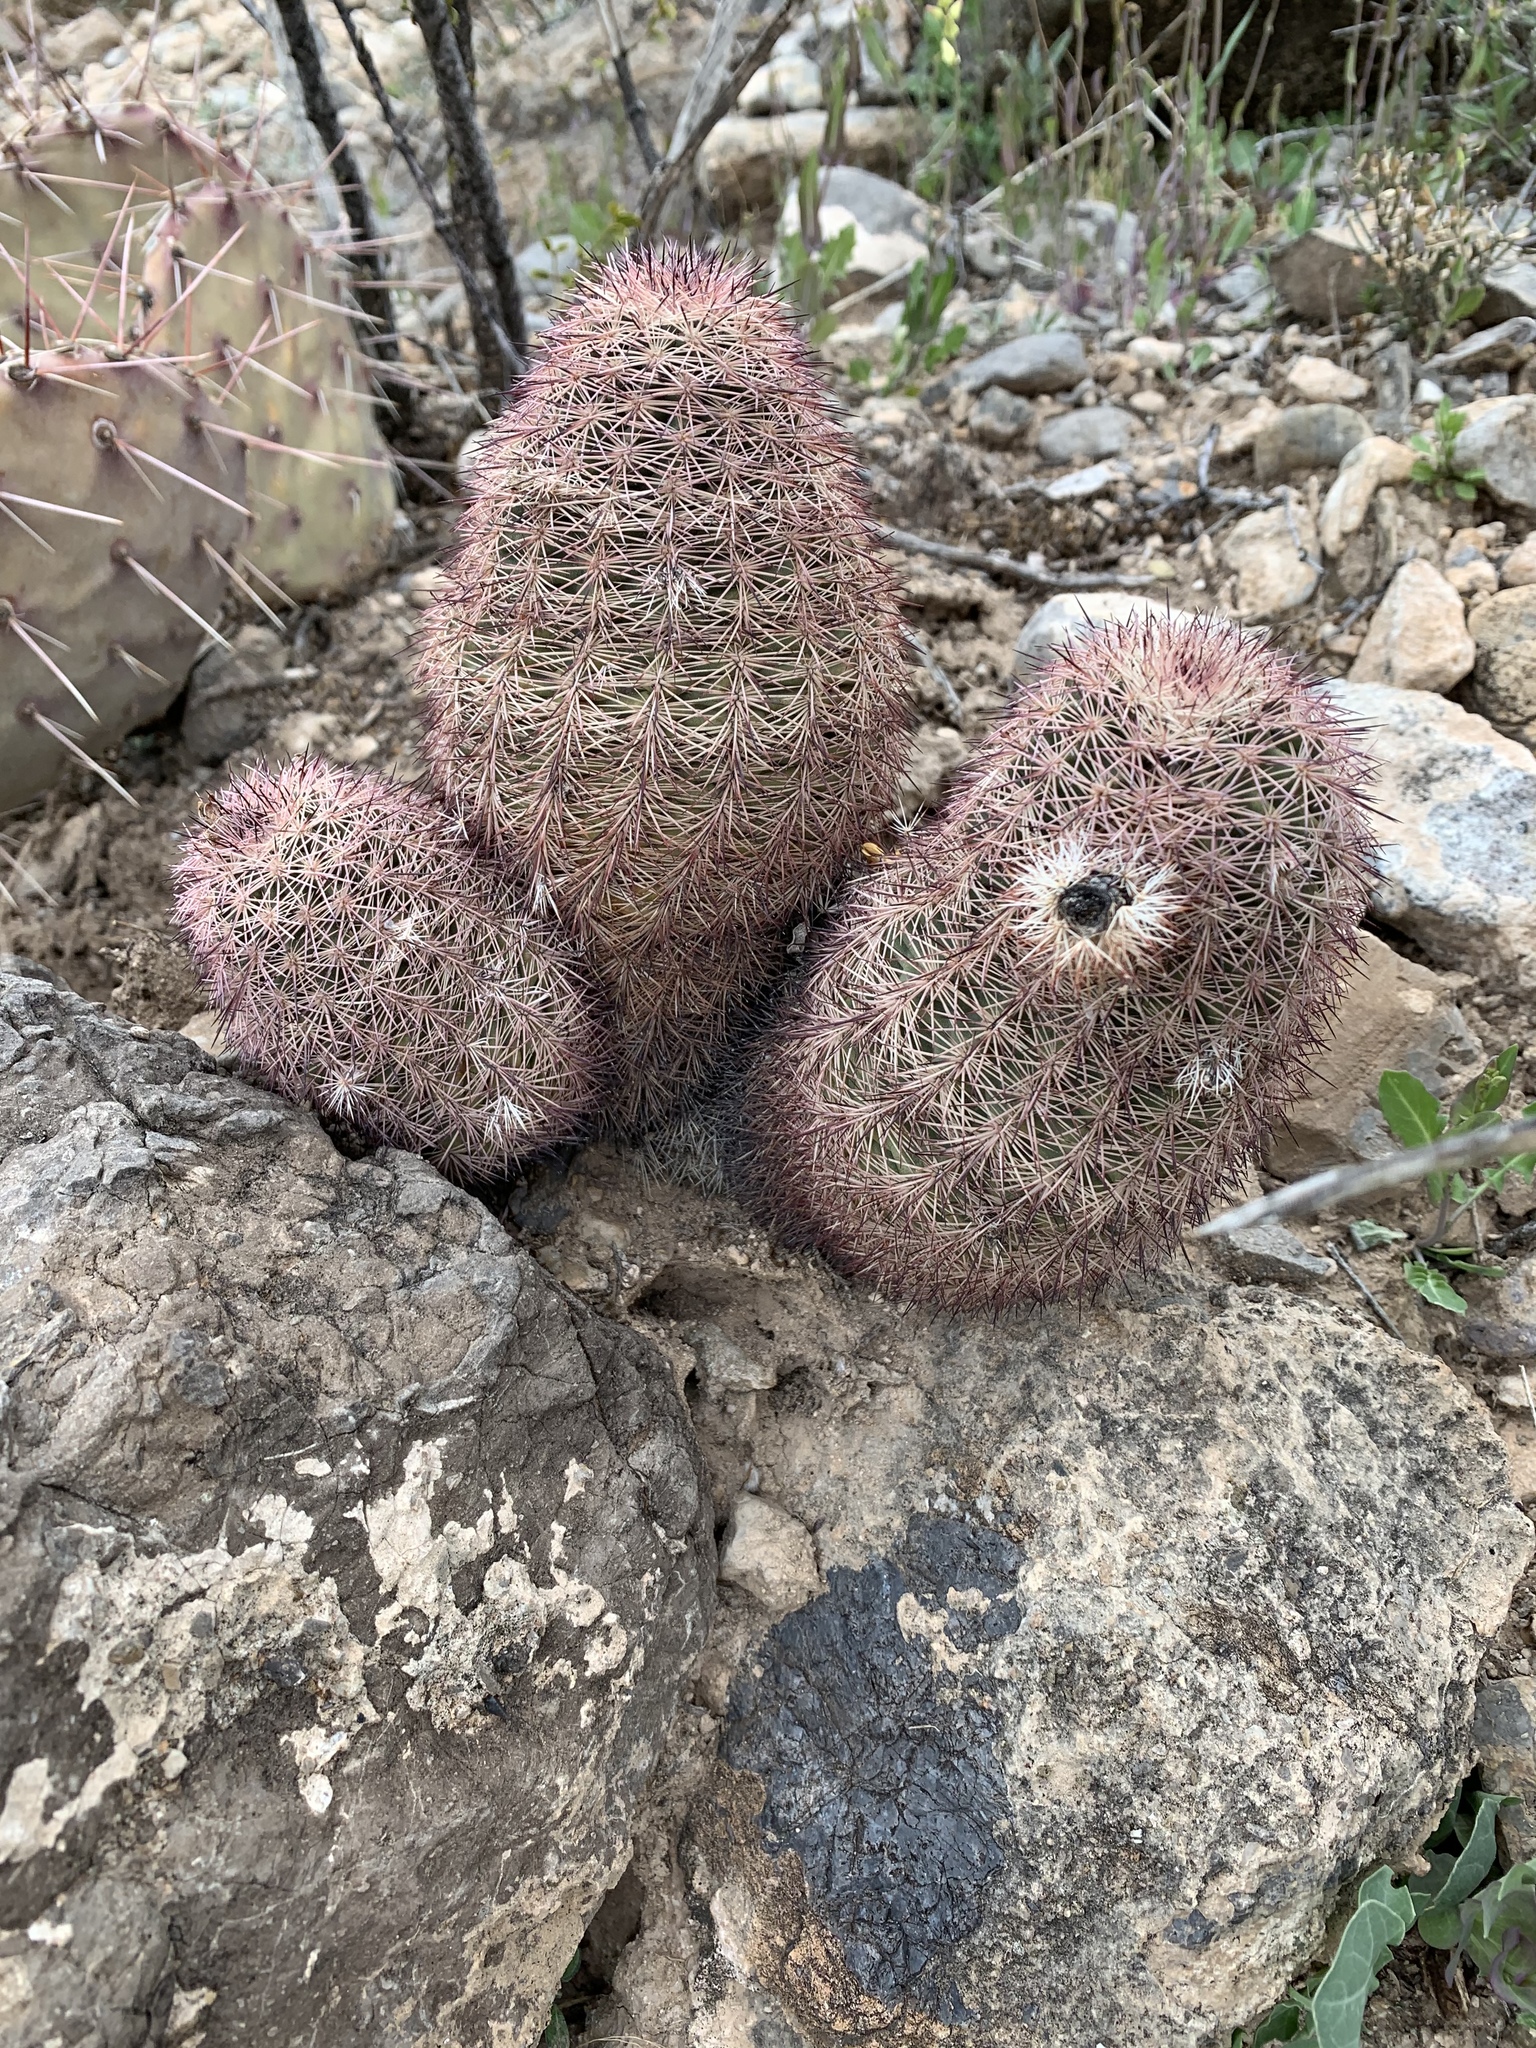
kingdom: Plantae
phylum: Tracheophyta
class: Magnoliopsida
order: Caryophyllales
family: Cactaceae
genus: Echinocereus
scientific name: Echinocereus dasyacanthus
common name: Spiny hedgehog cactus
